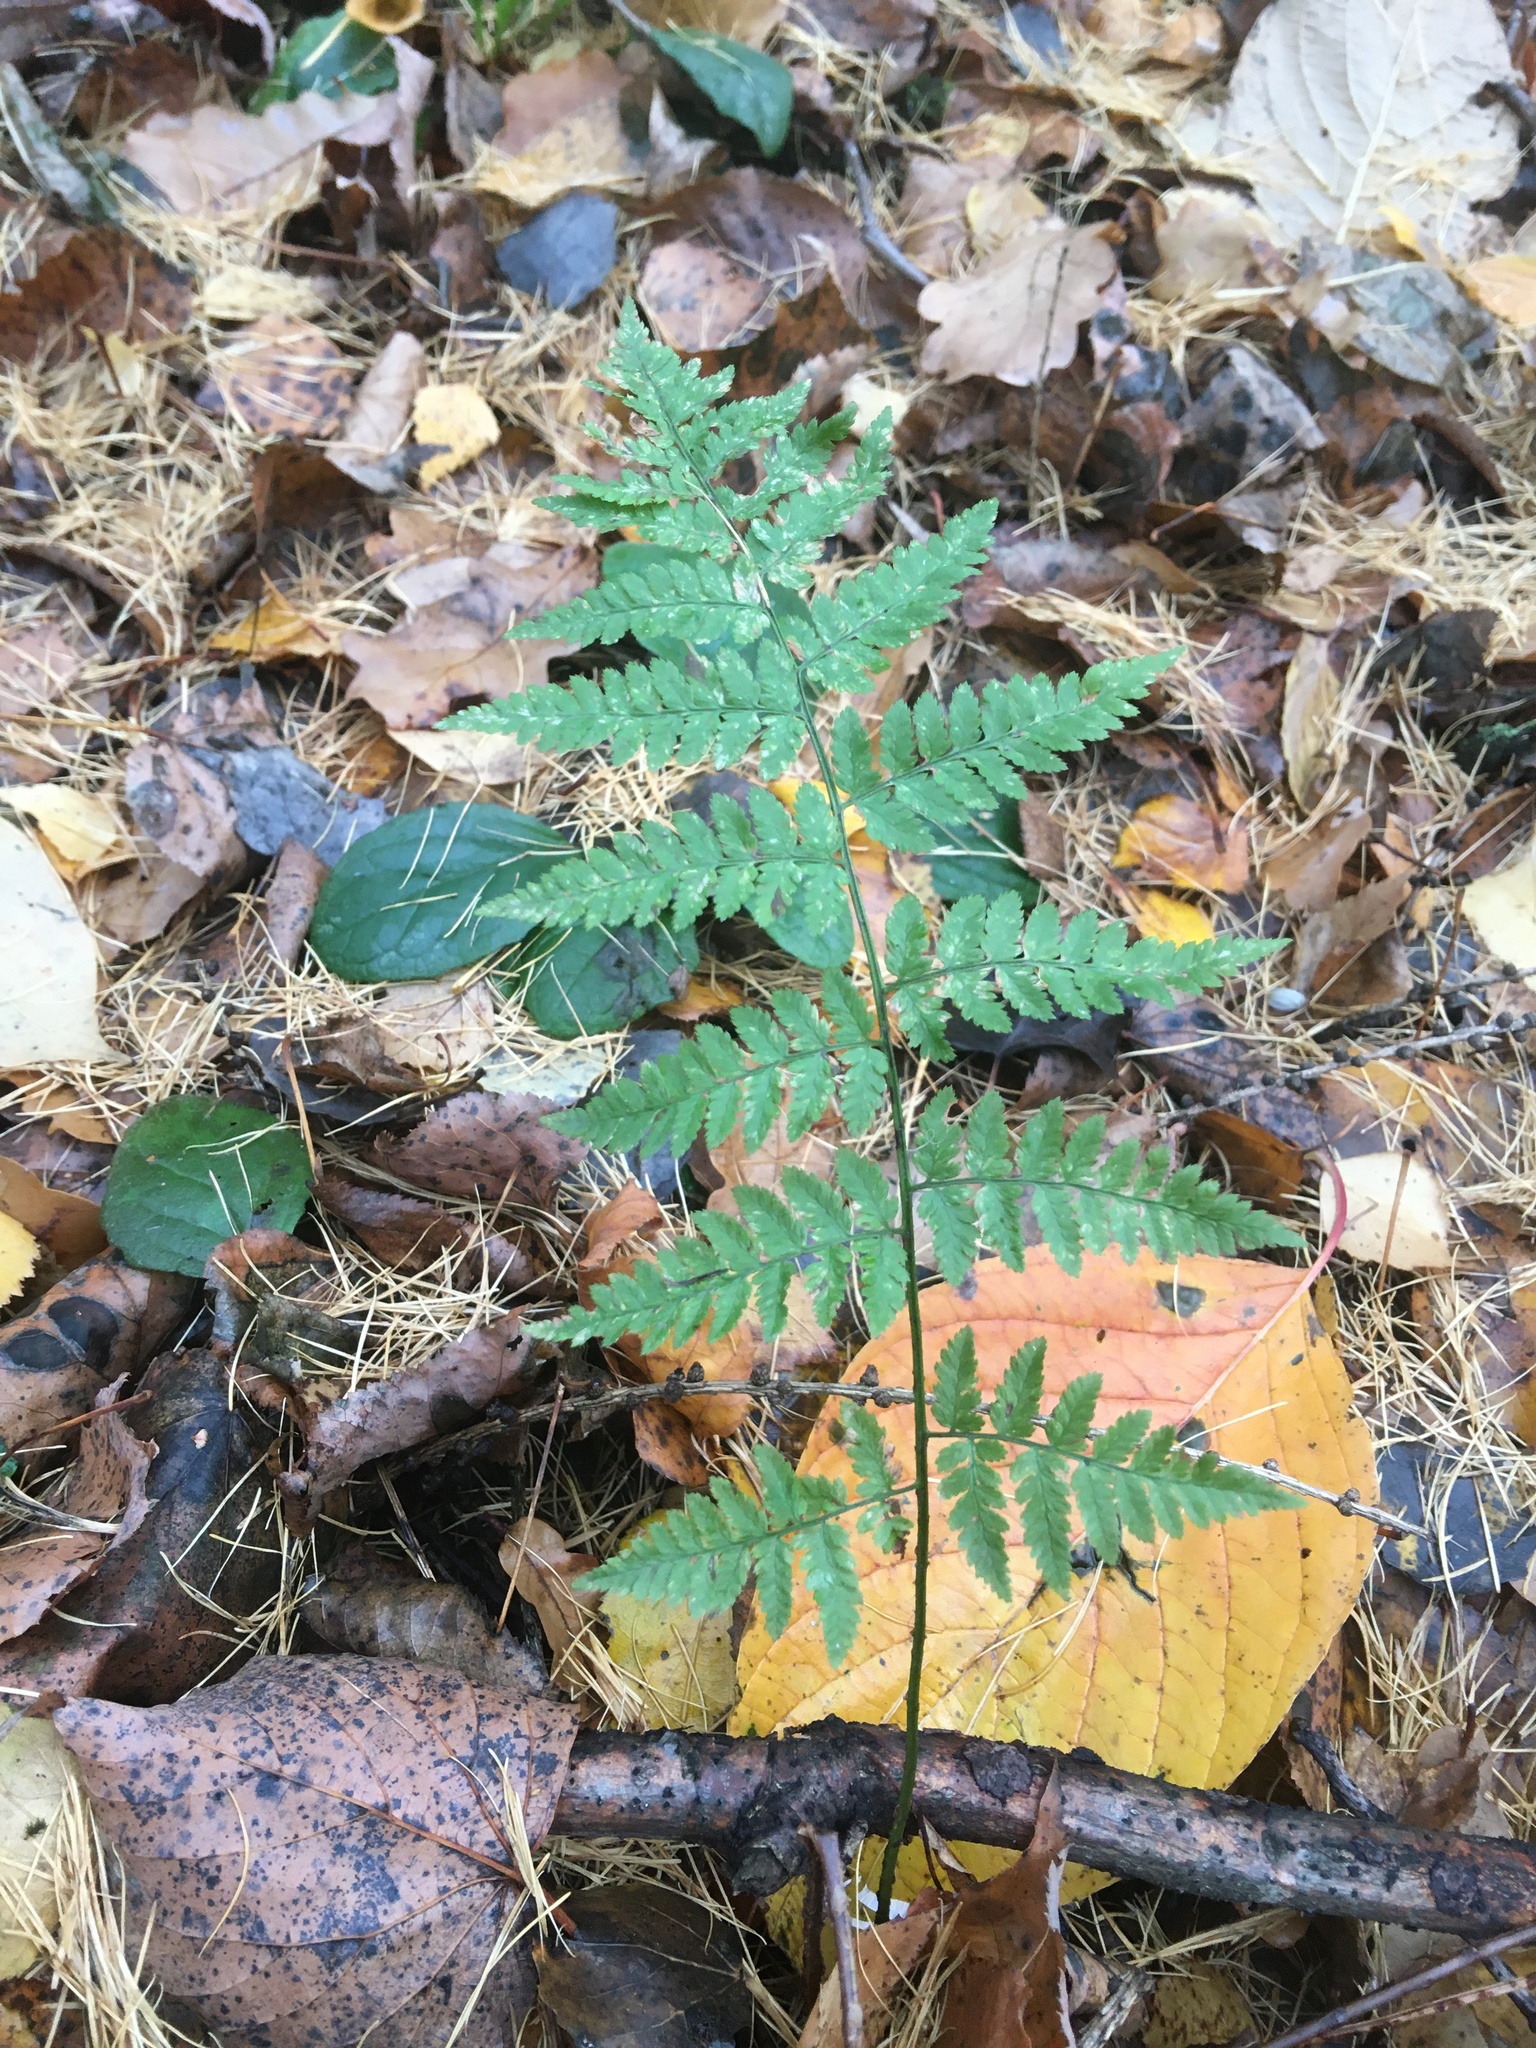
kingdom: Plantae
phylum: Tracheophyta
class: Polypodiopsida
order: Polypodiales
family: Dryopteridaceae
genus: Dryopteris
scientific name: Dryopteris carthusiana
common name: Narrow buckler-fern
